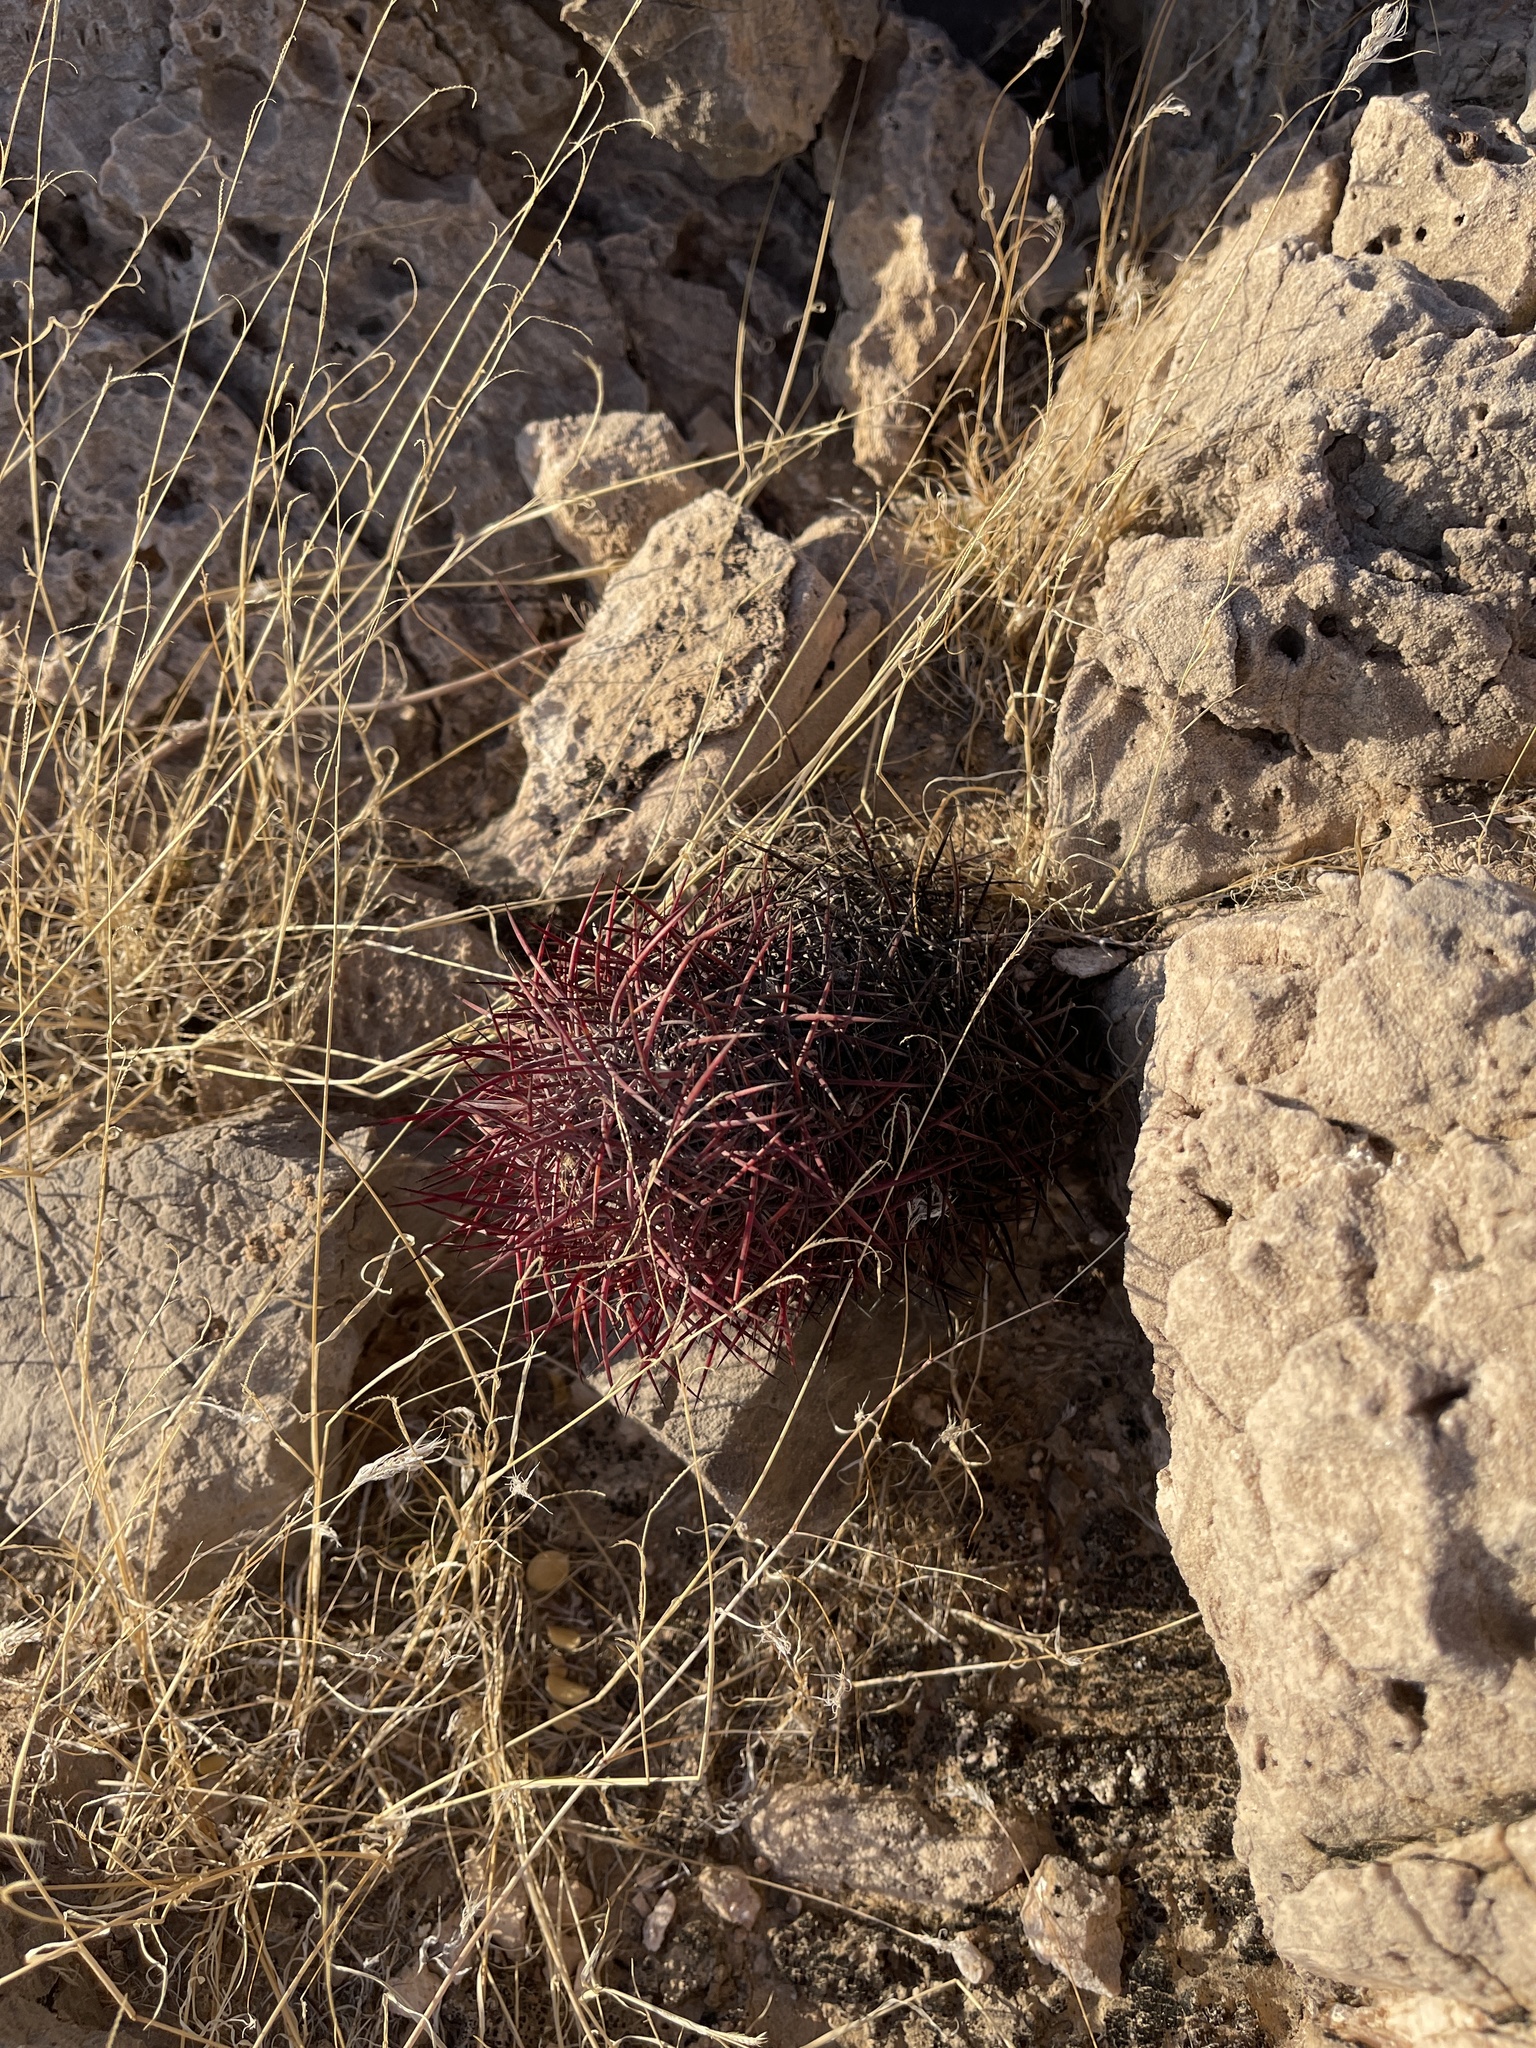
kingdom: Plantae
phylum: Tracheophyta
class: Magnoliopsida
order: Caryophyllales
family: Cactaceae
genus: Sclerocactus
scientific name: Sclerocactus johnsonii
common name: Eight-spine fishhook cactus
